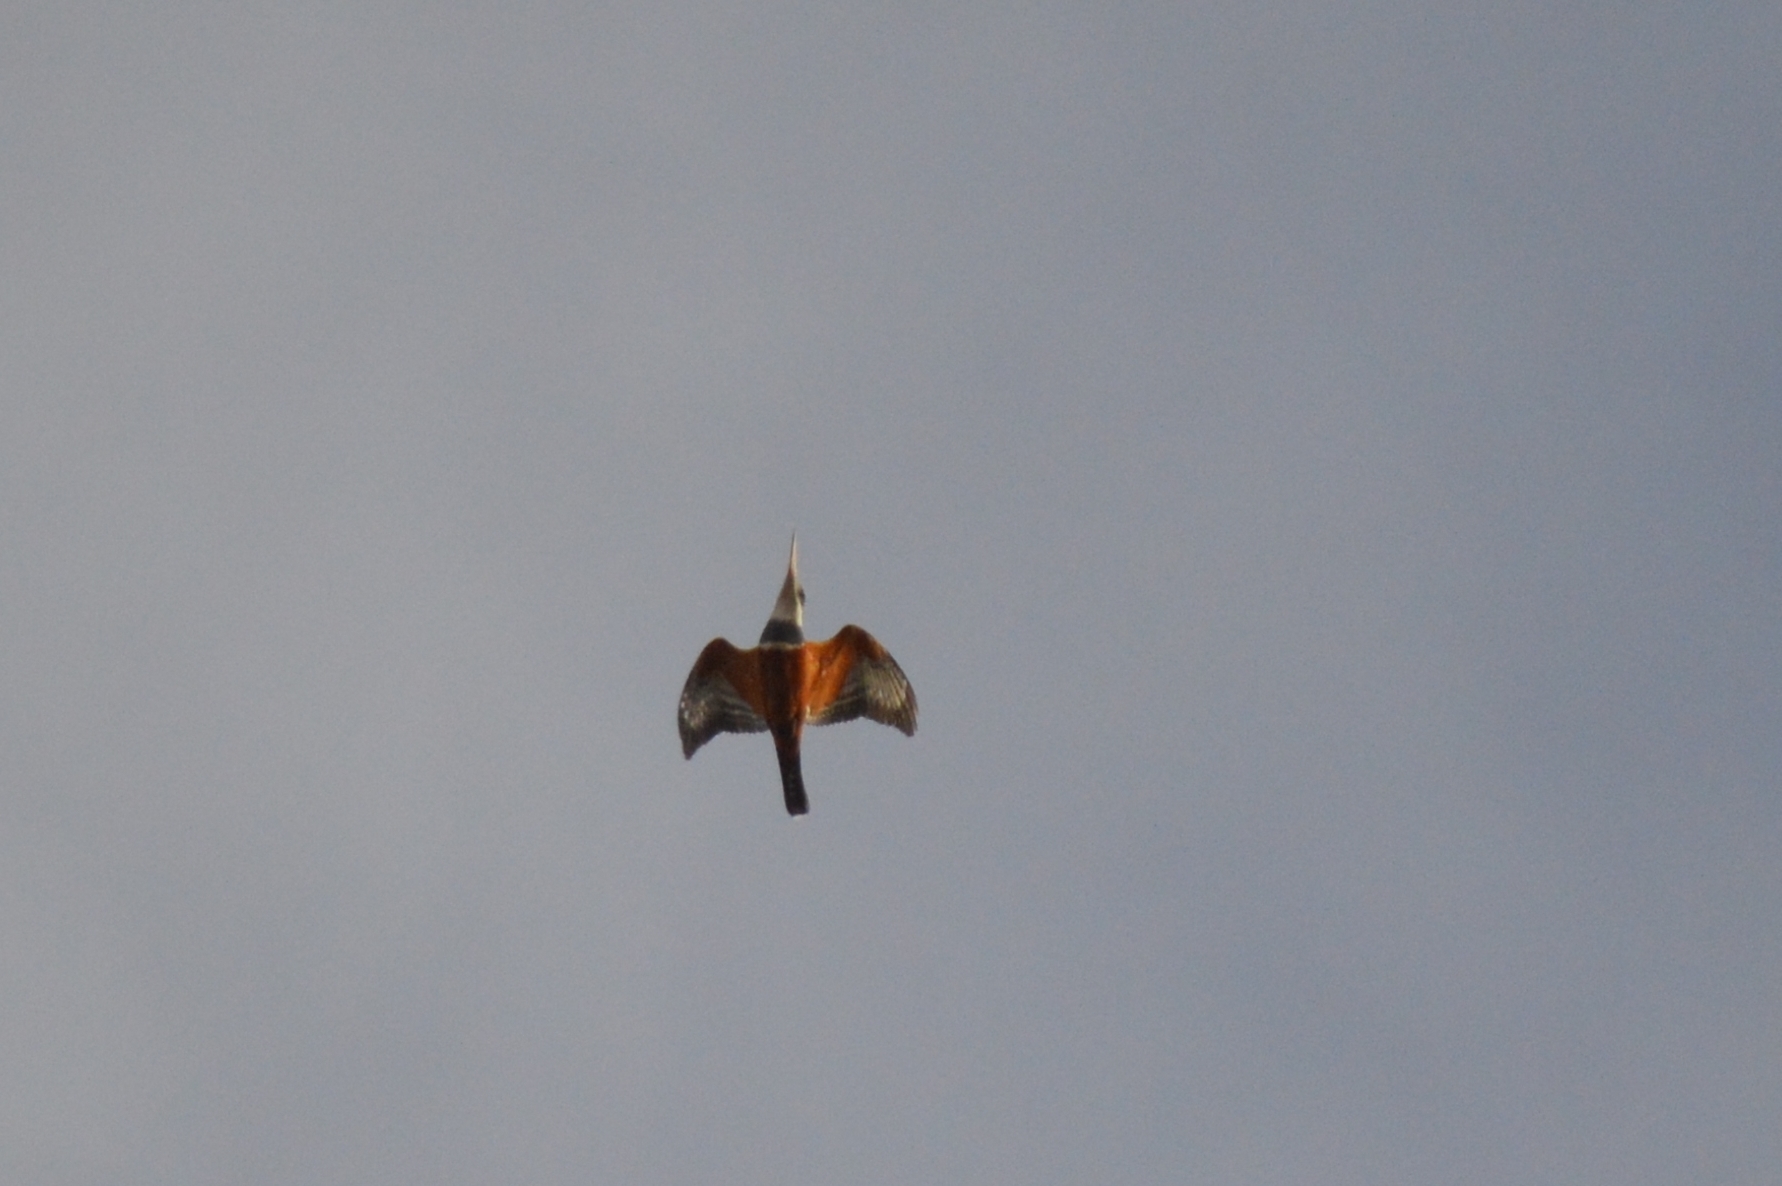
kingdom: Animalia
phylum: Chordata
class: Aves
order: Coraciiformes
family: Alcedinidae
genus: Megaceryle
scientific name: Megaceryle torquata
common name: Ringed kingfisher
